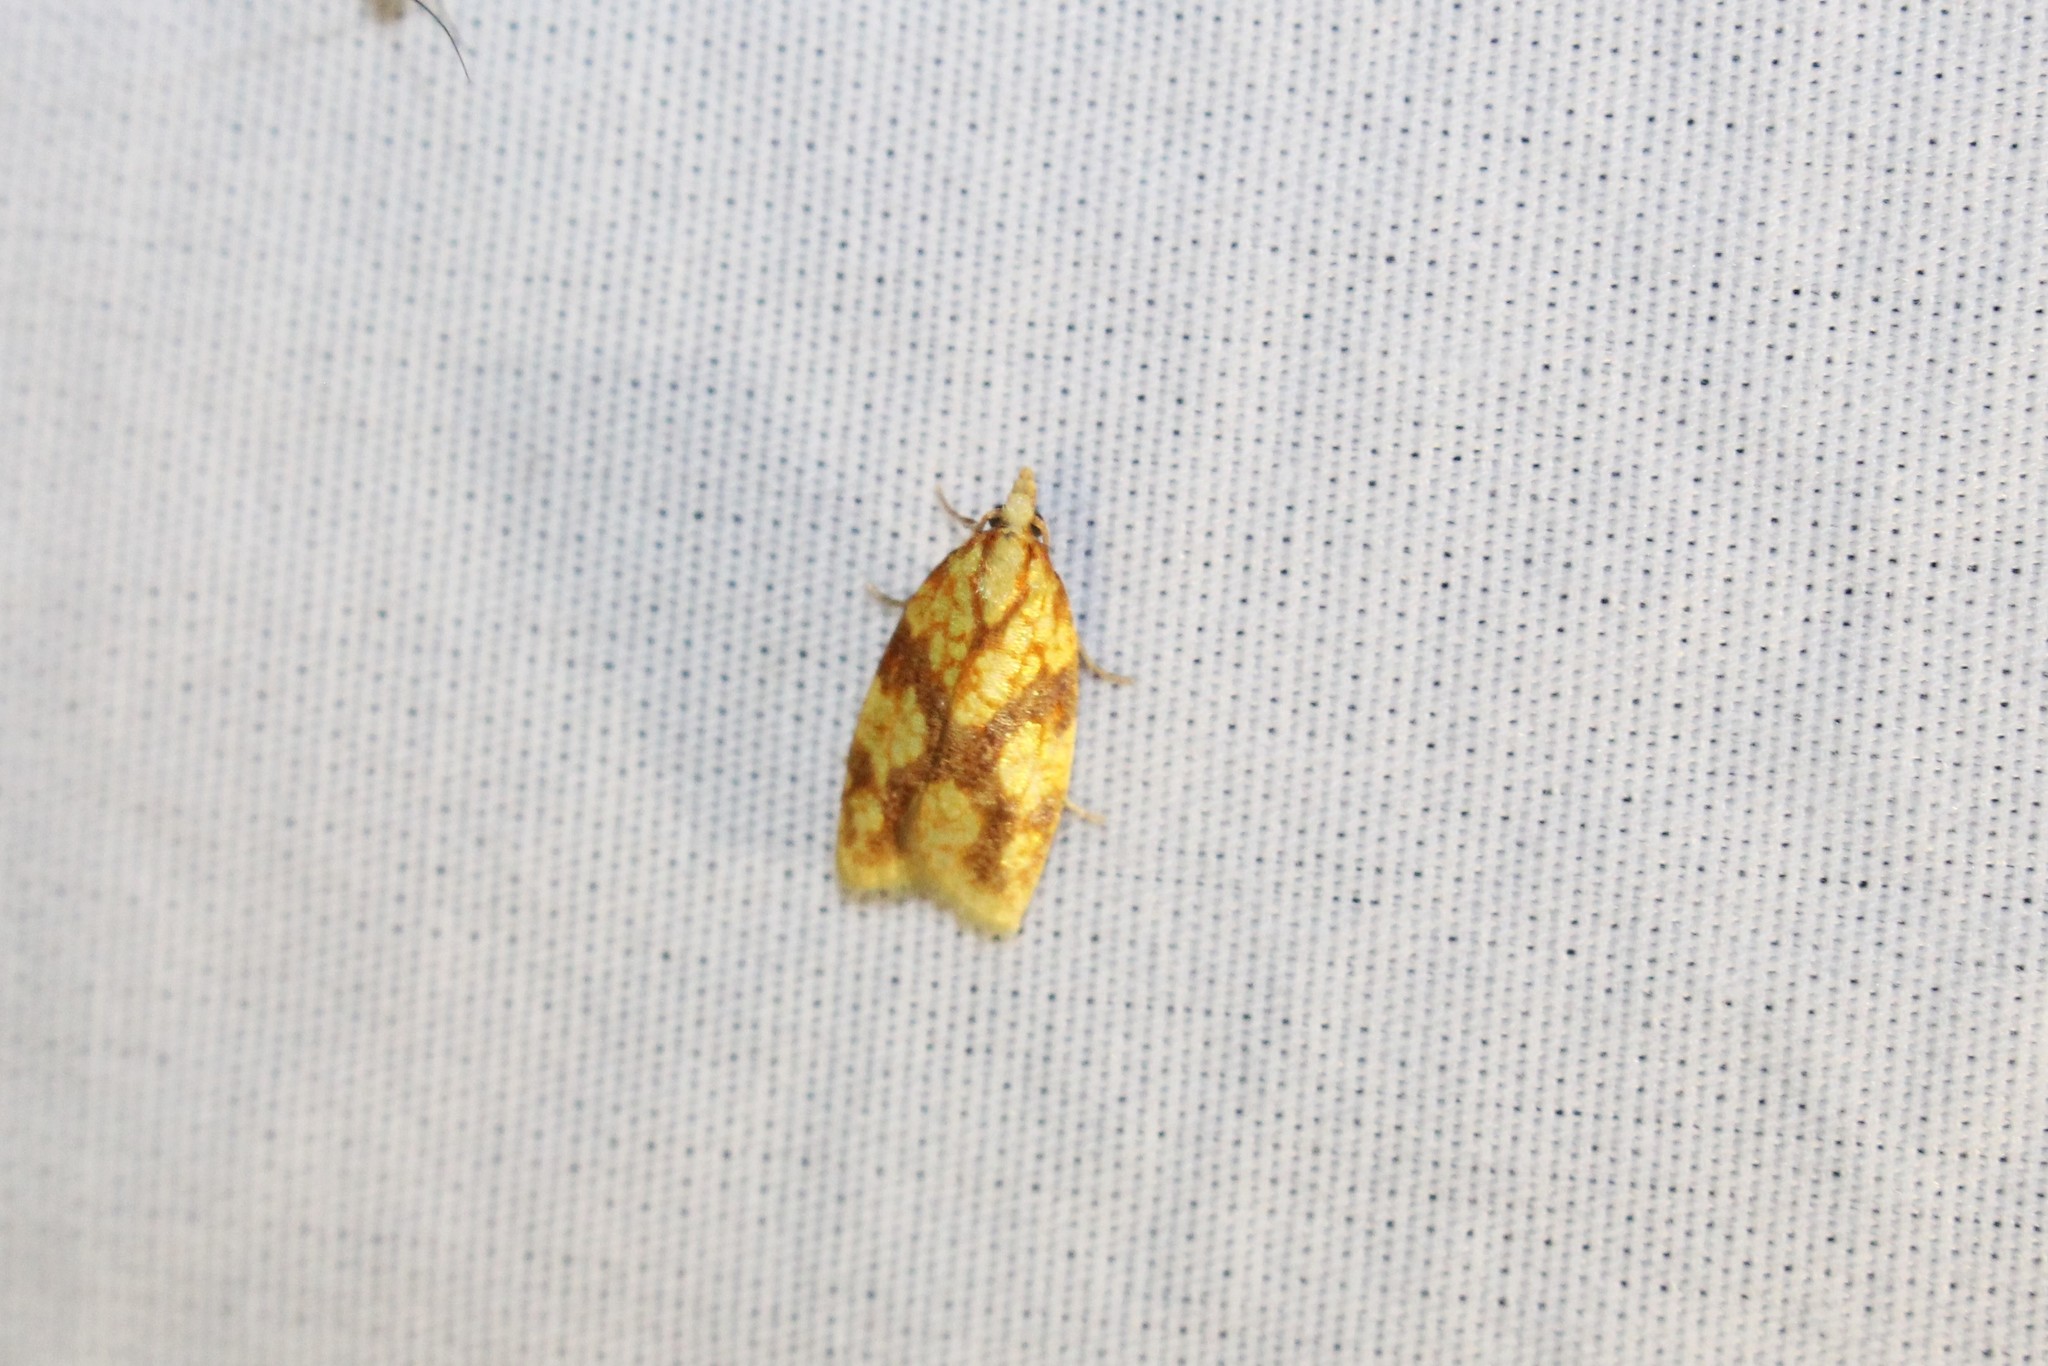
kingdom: Animalia
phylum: Arthropoda
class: Insecta
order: Lepidoptera
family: Tortricidae
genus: Sparganothis
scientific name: Sparganothis sulfureana
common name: Sparganothis fruitworm moth
